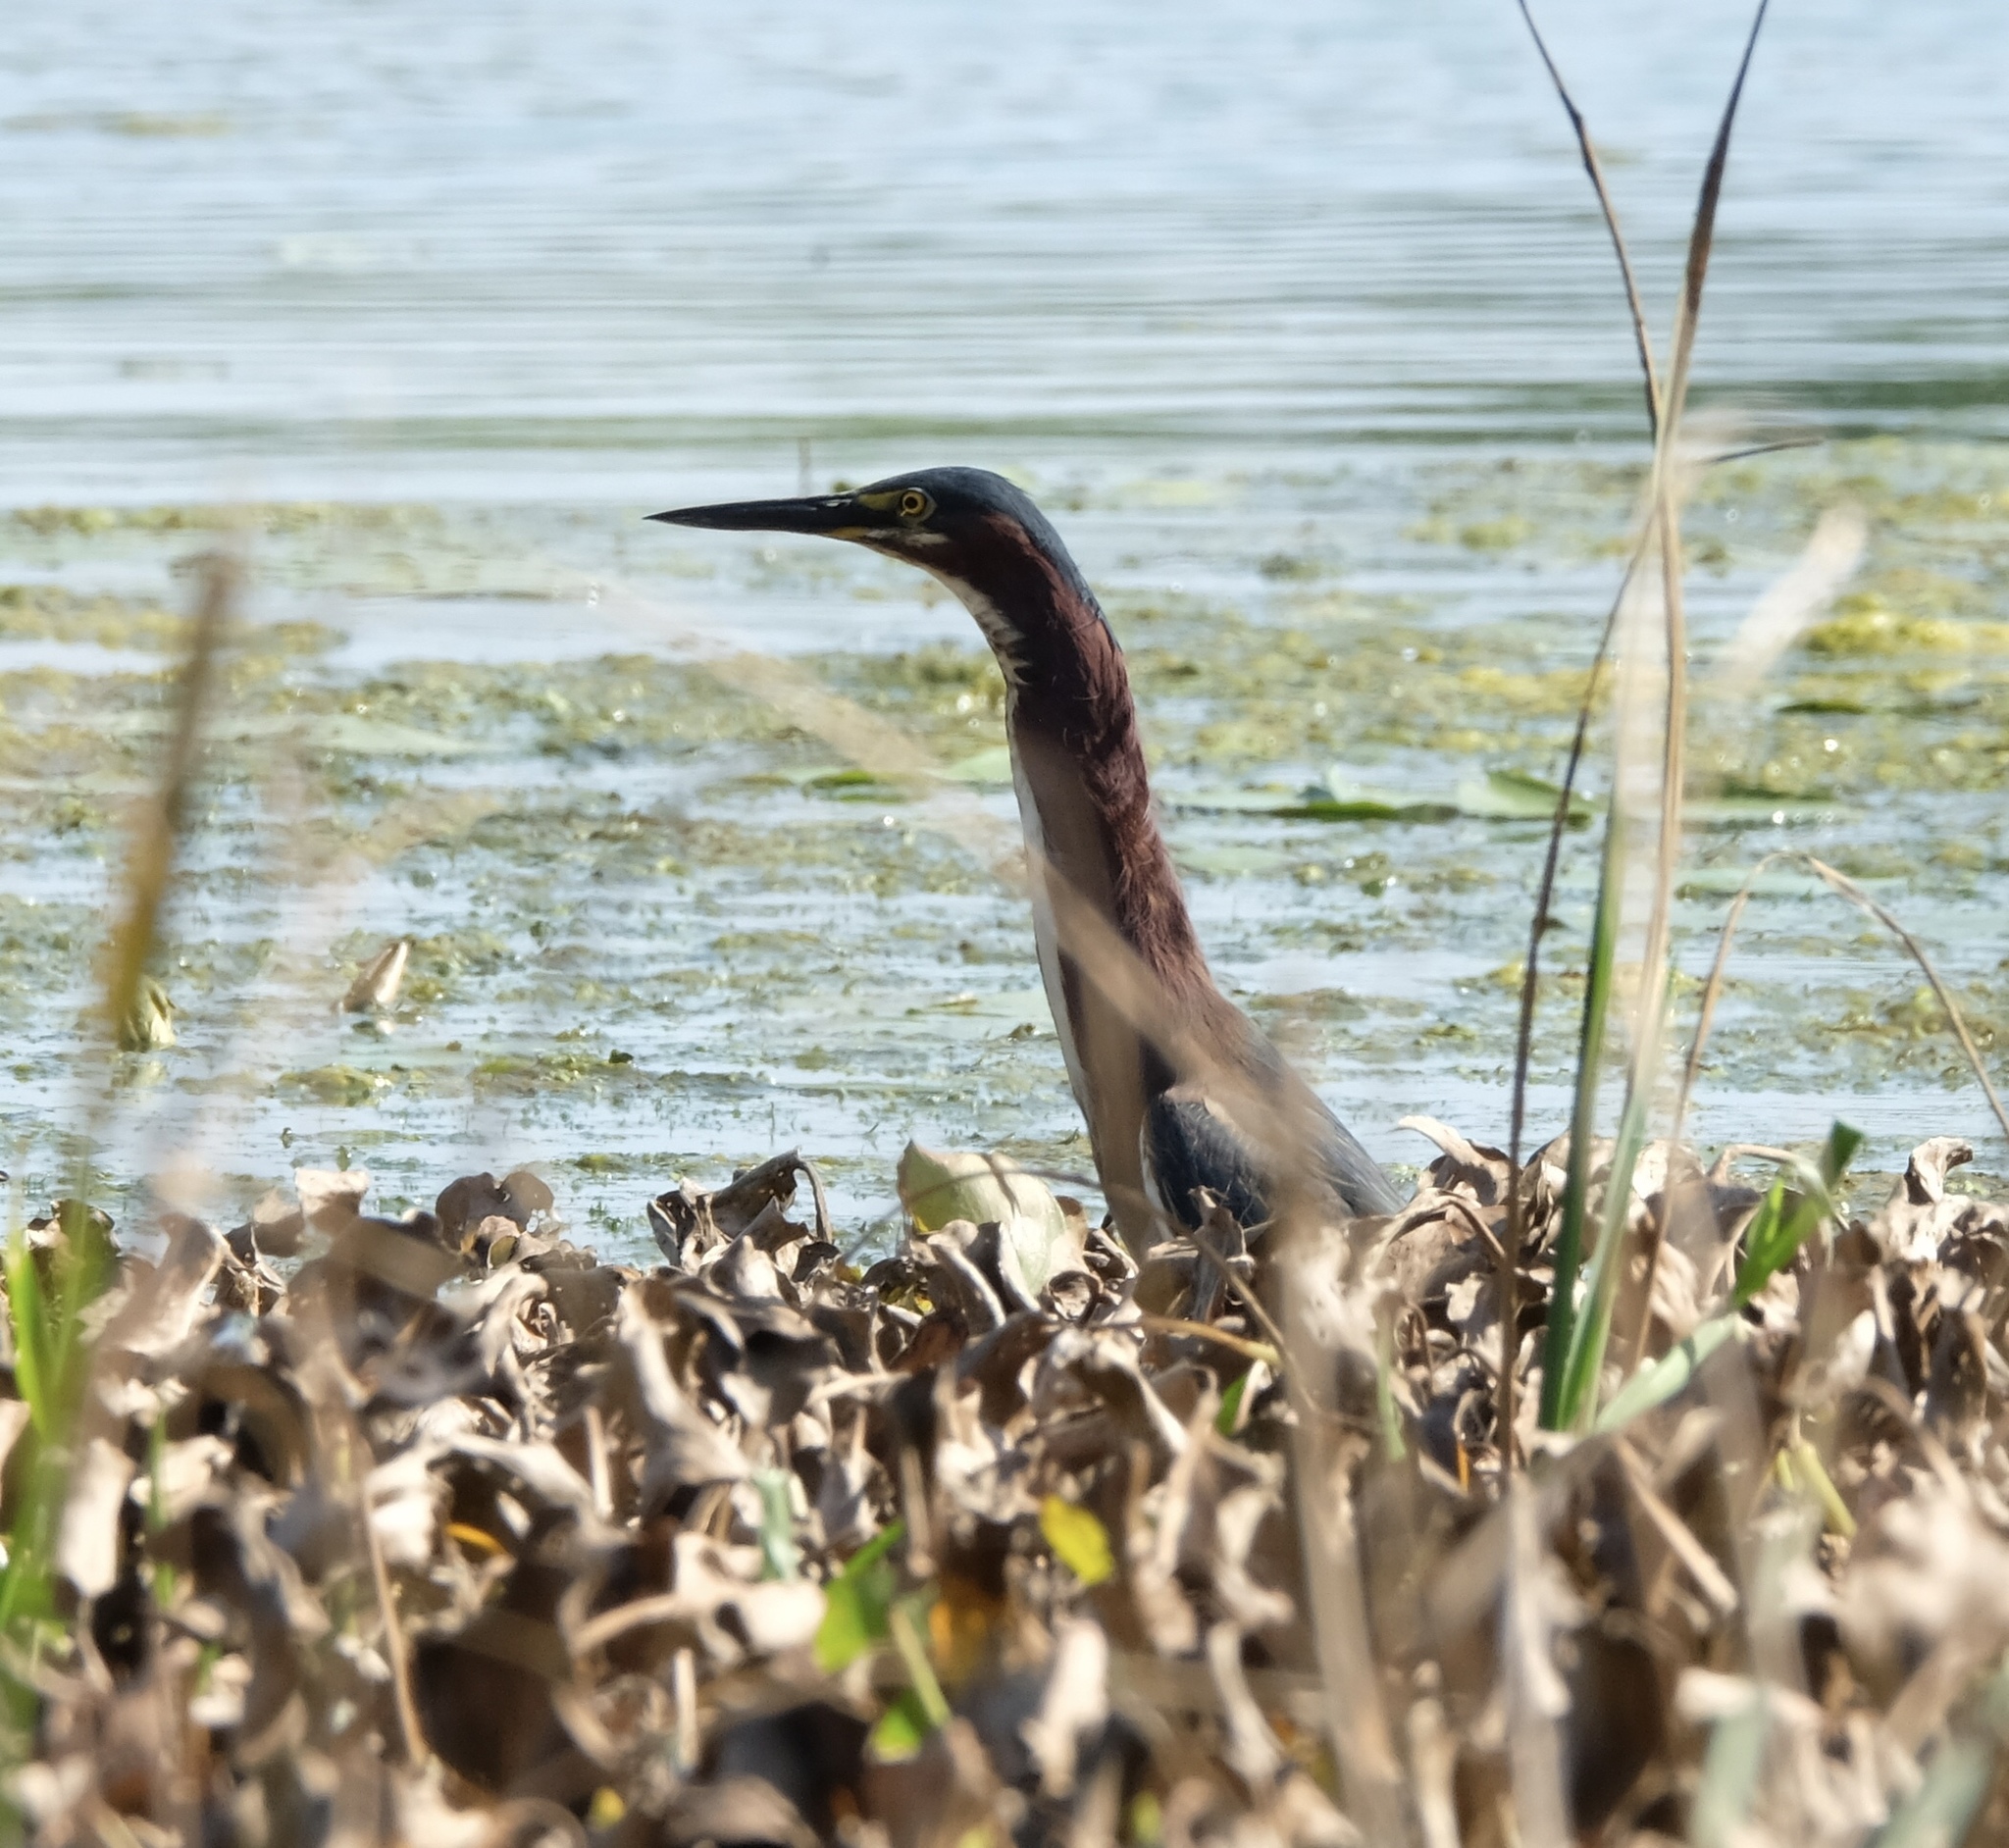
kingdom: Animalia
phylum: Chordata
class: Aves
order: Pelecaniformes
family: Ardeidae
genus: Butorides
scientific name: Butorides virescens
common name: Green heron
